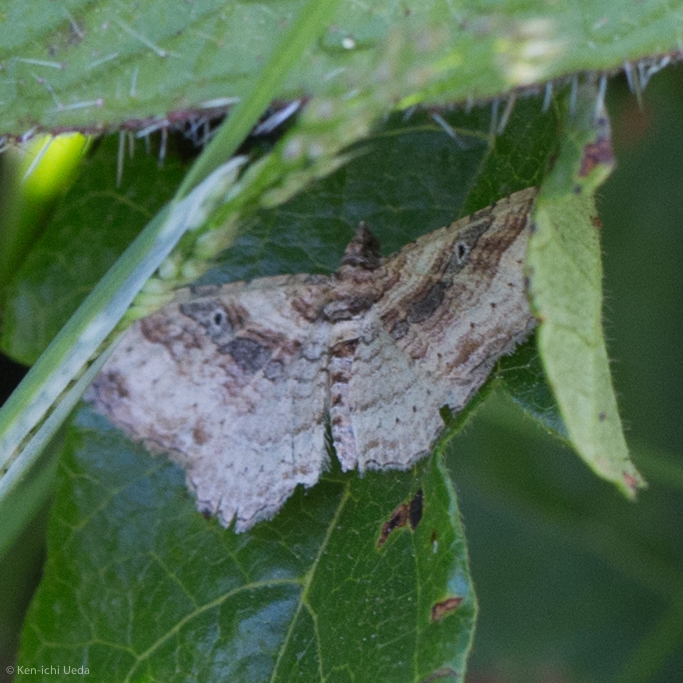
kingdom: Animalia
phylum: Arthropoda
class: Insecta
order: Lepidoptera
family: Geometridae
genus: Costaconvexa
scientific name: Costaconvexa centrostrigaria
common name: Bent-line carpet
